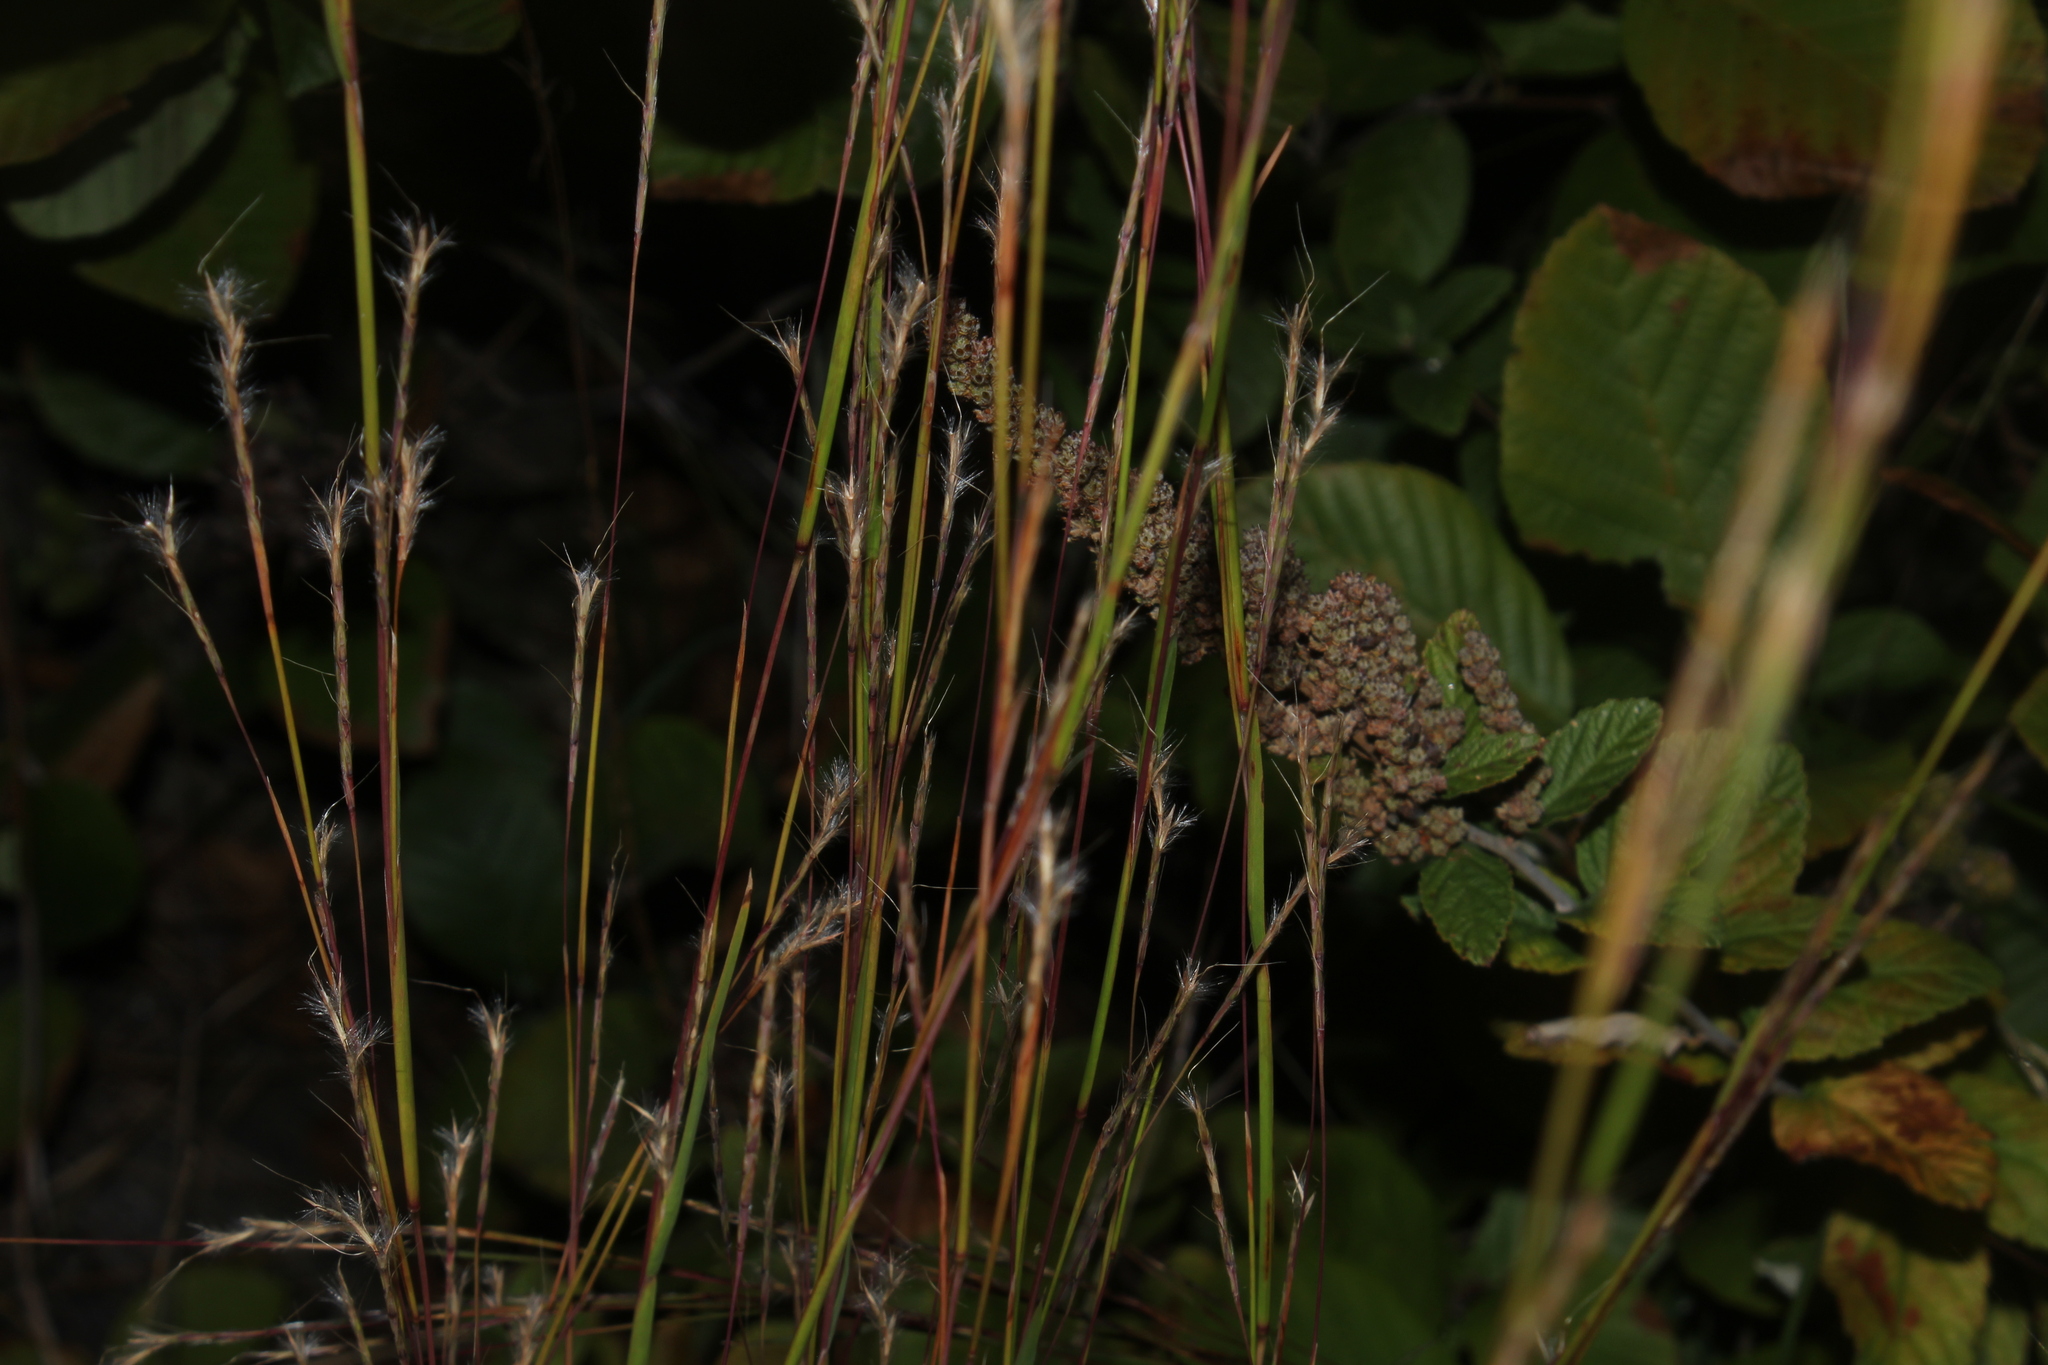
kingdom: Plantae
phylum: Tracheophyta
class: Liliopsida
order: Poales
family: Poaceae
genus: Schizachyrium
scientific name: Schizachyrium scoparium
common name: Little bluestem
